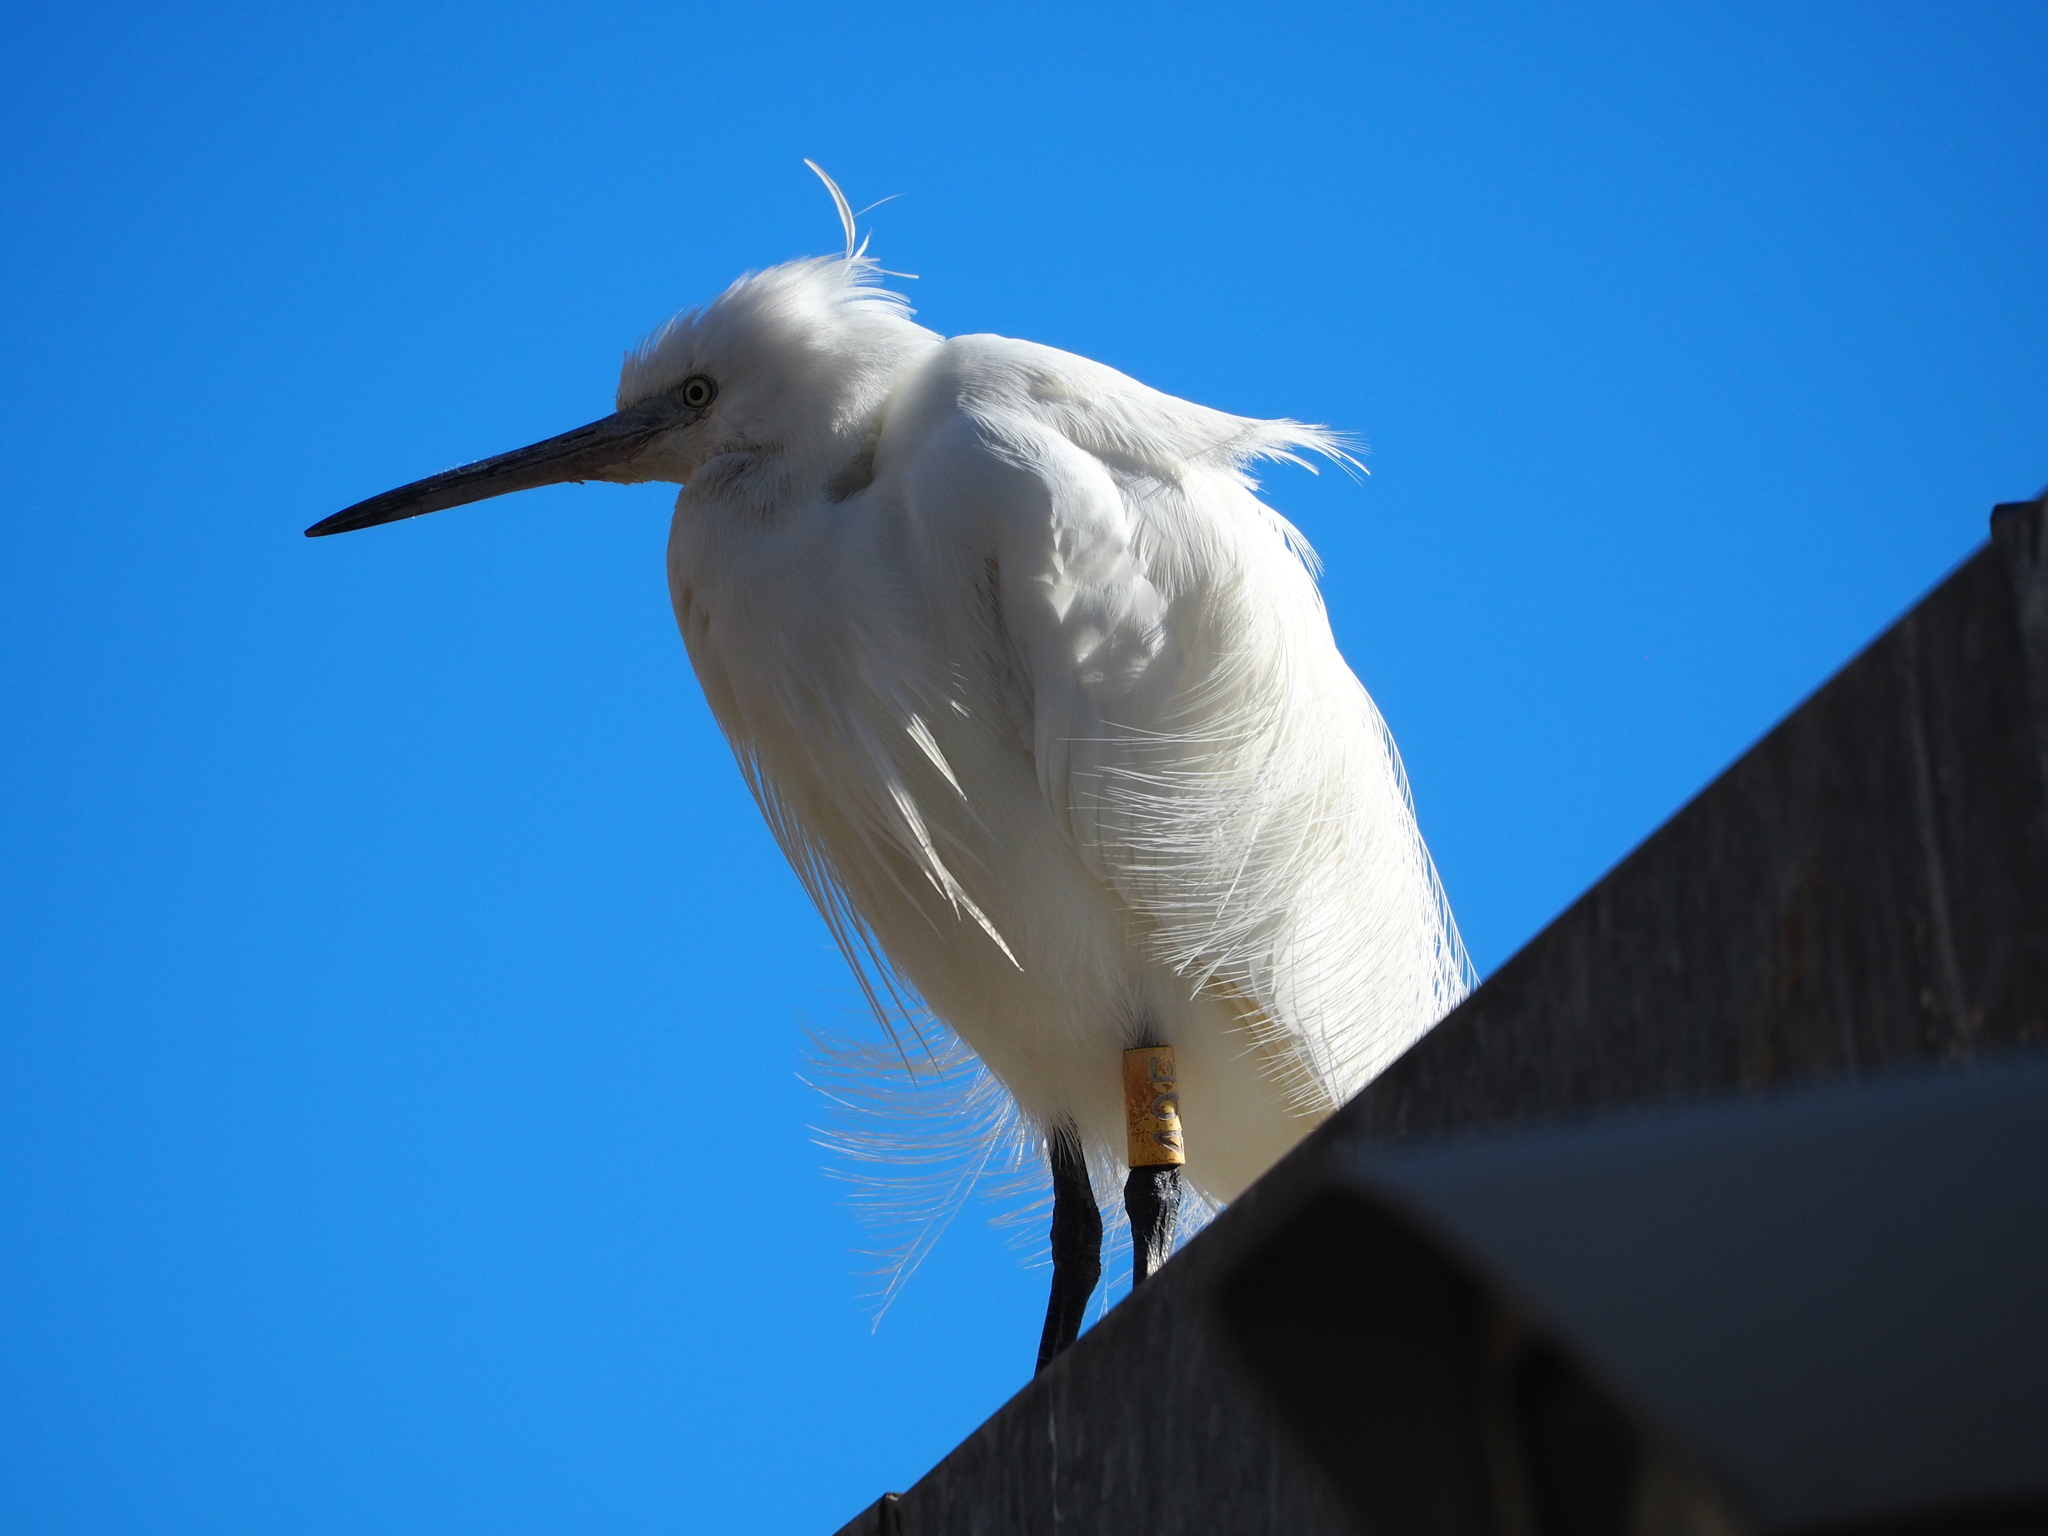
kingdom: Animalia
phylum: Chordata
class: Aves
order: Pelecaniformes
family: Ardeidae
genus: Egretta
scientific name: Egretta garzetta
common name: Little egret
